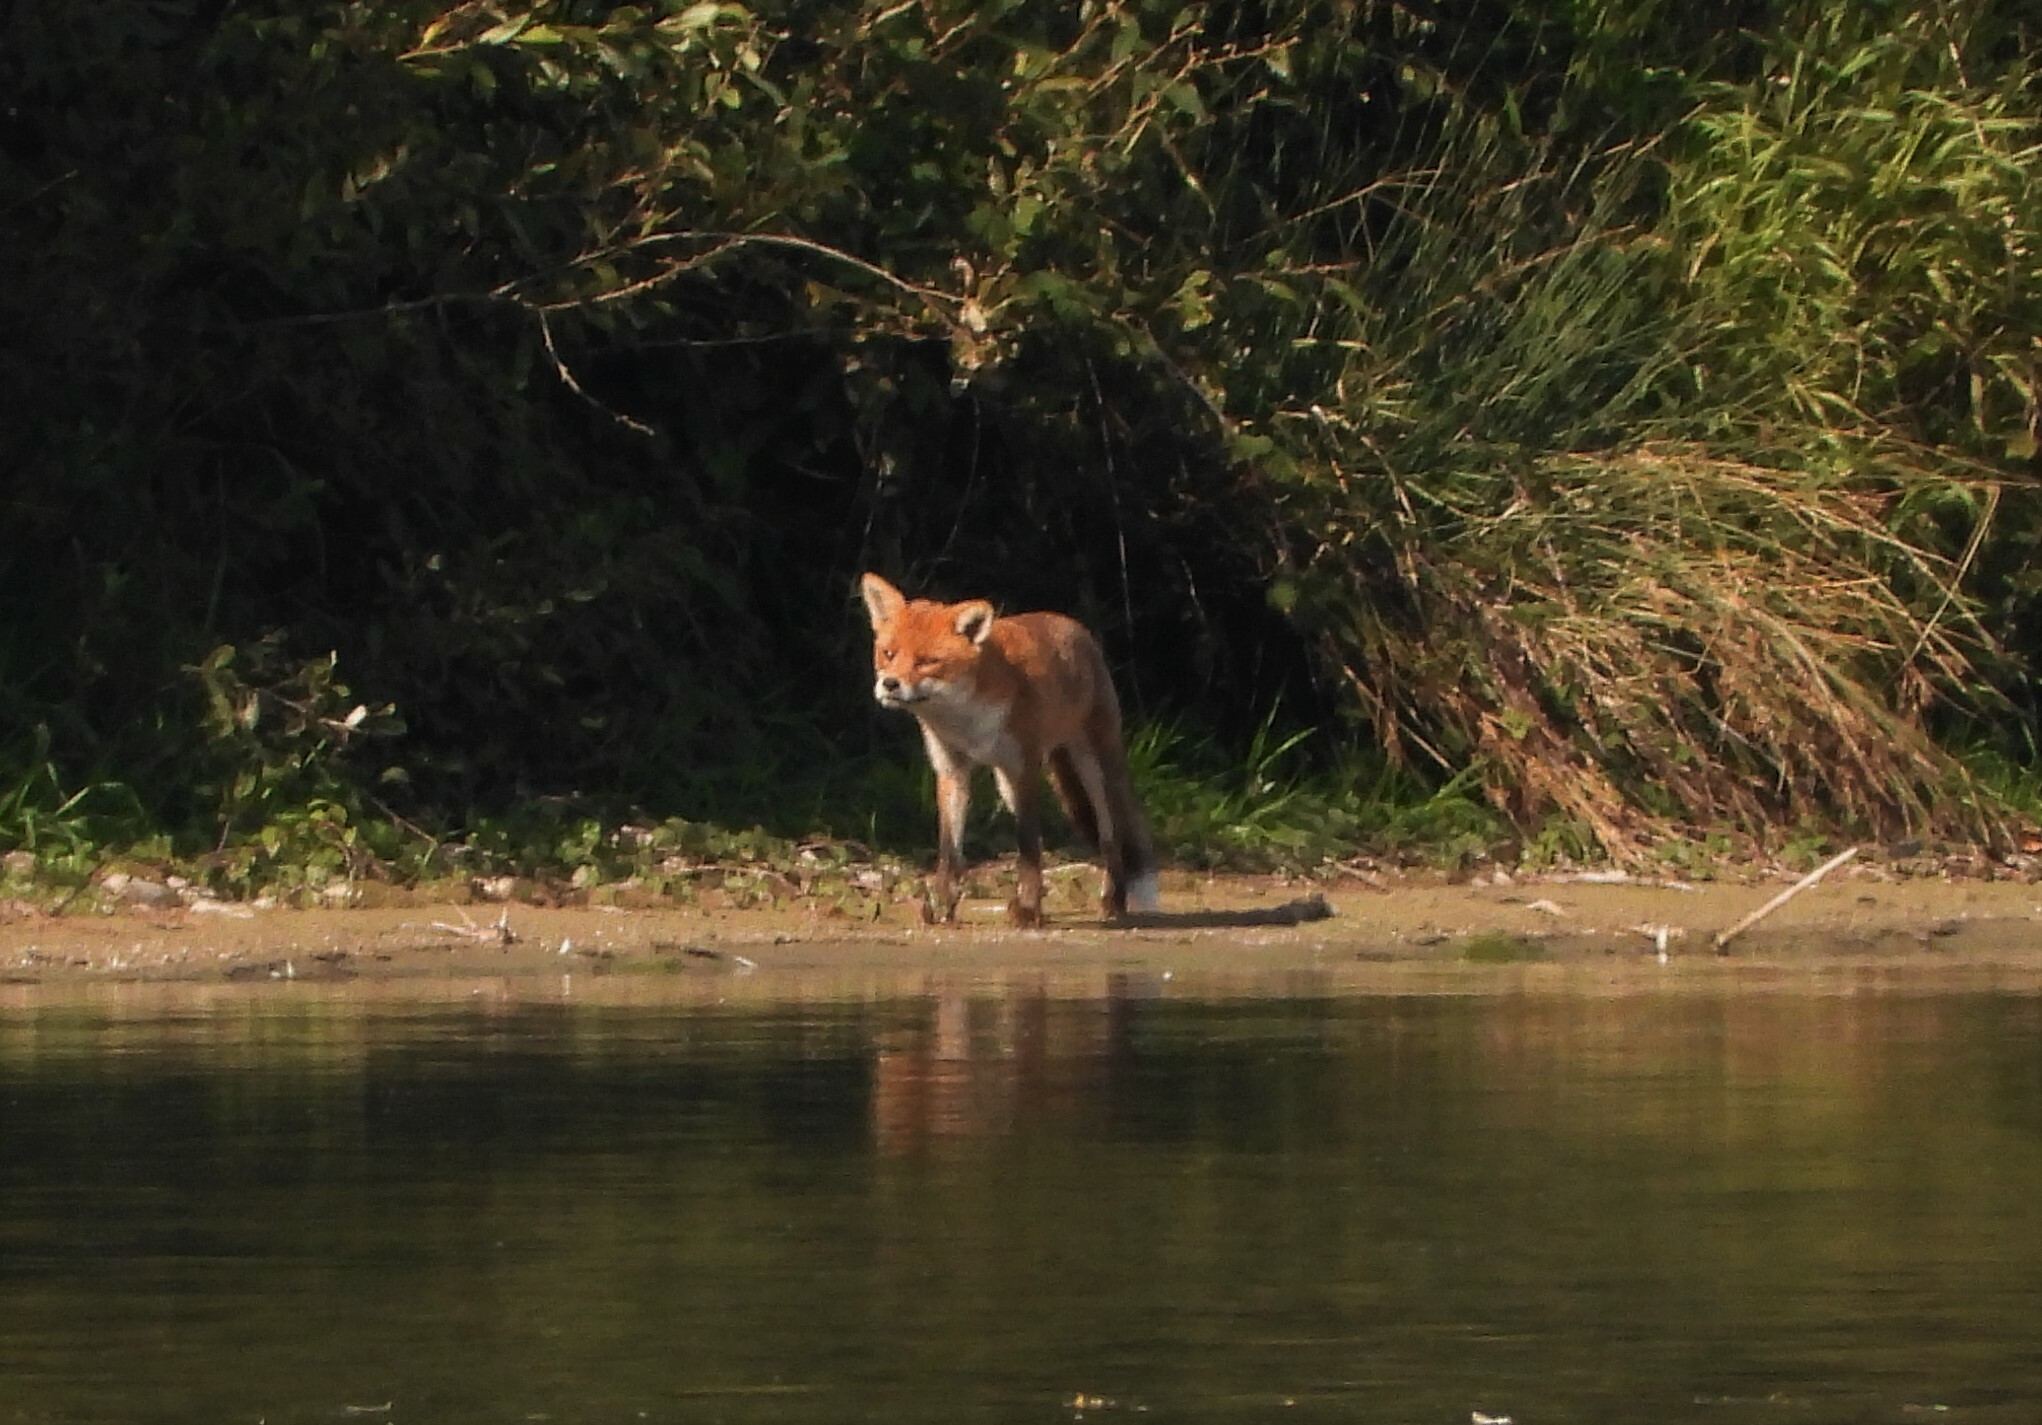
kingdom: Animalia
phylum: Chordata
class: Mammalia
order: Carnivora
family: Canidae
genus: Vulpes
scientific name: Vulpes vulpes
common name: Red fox
